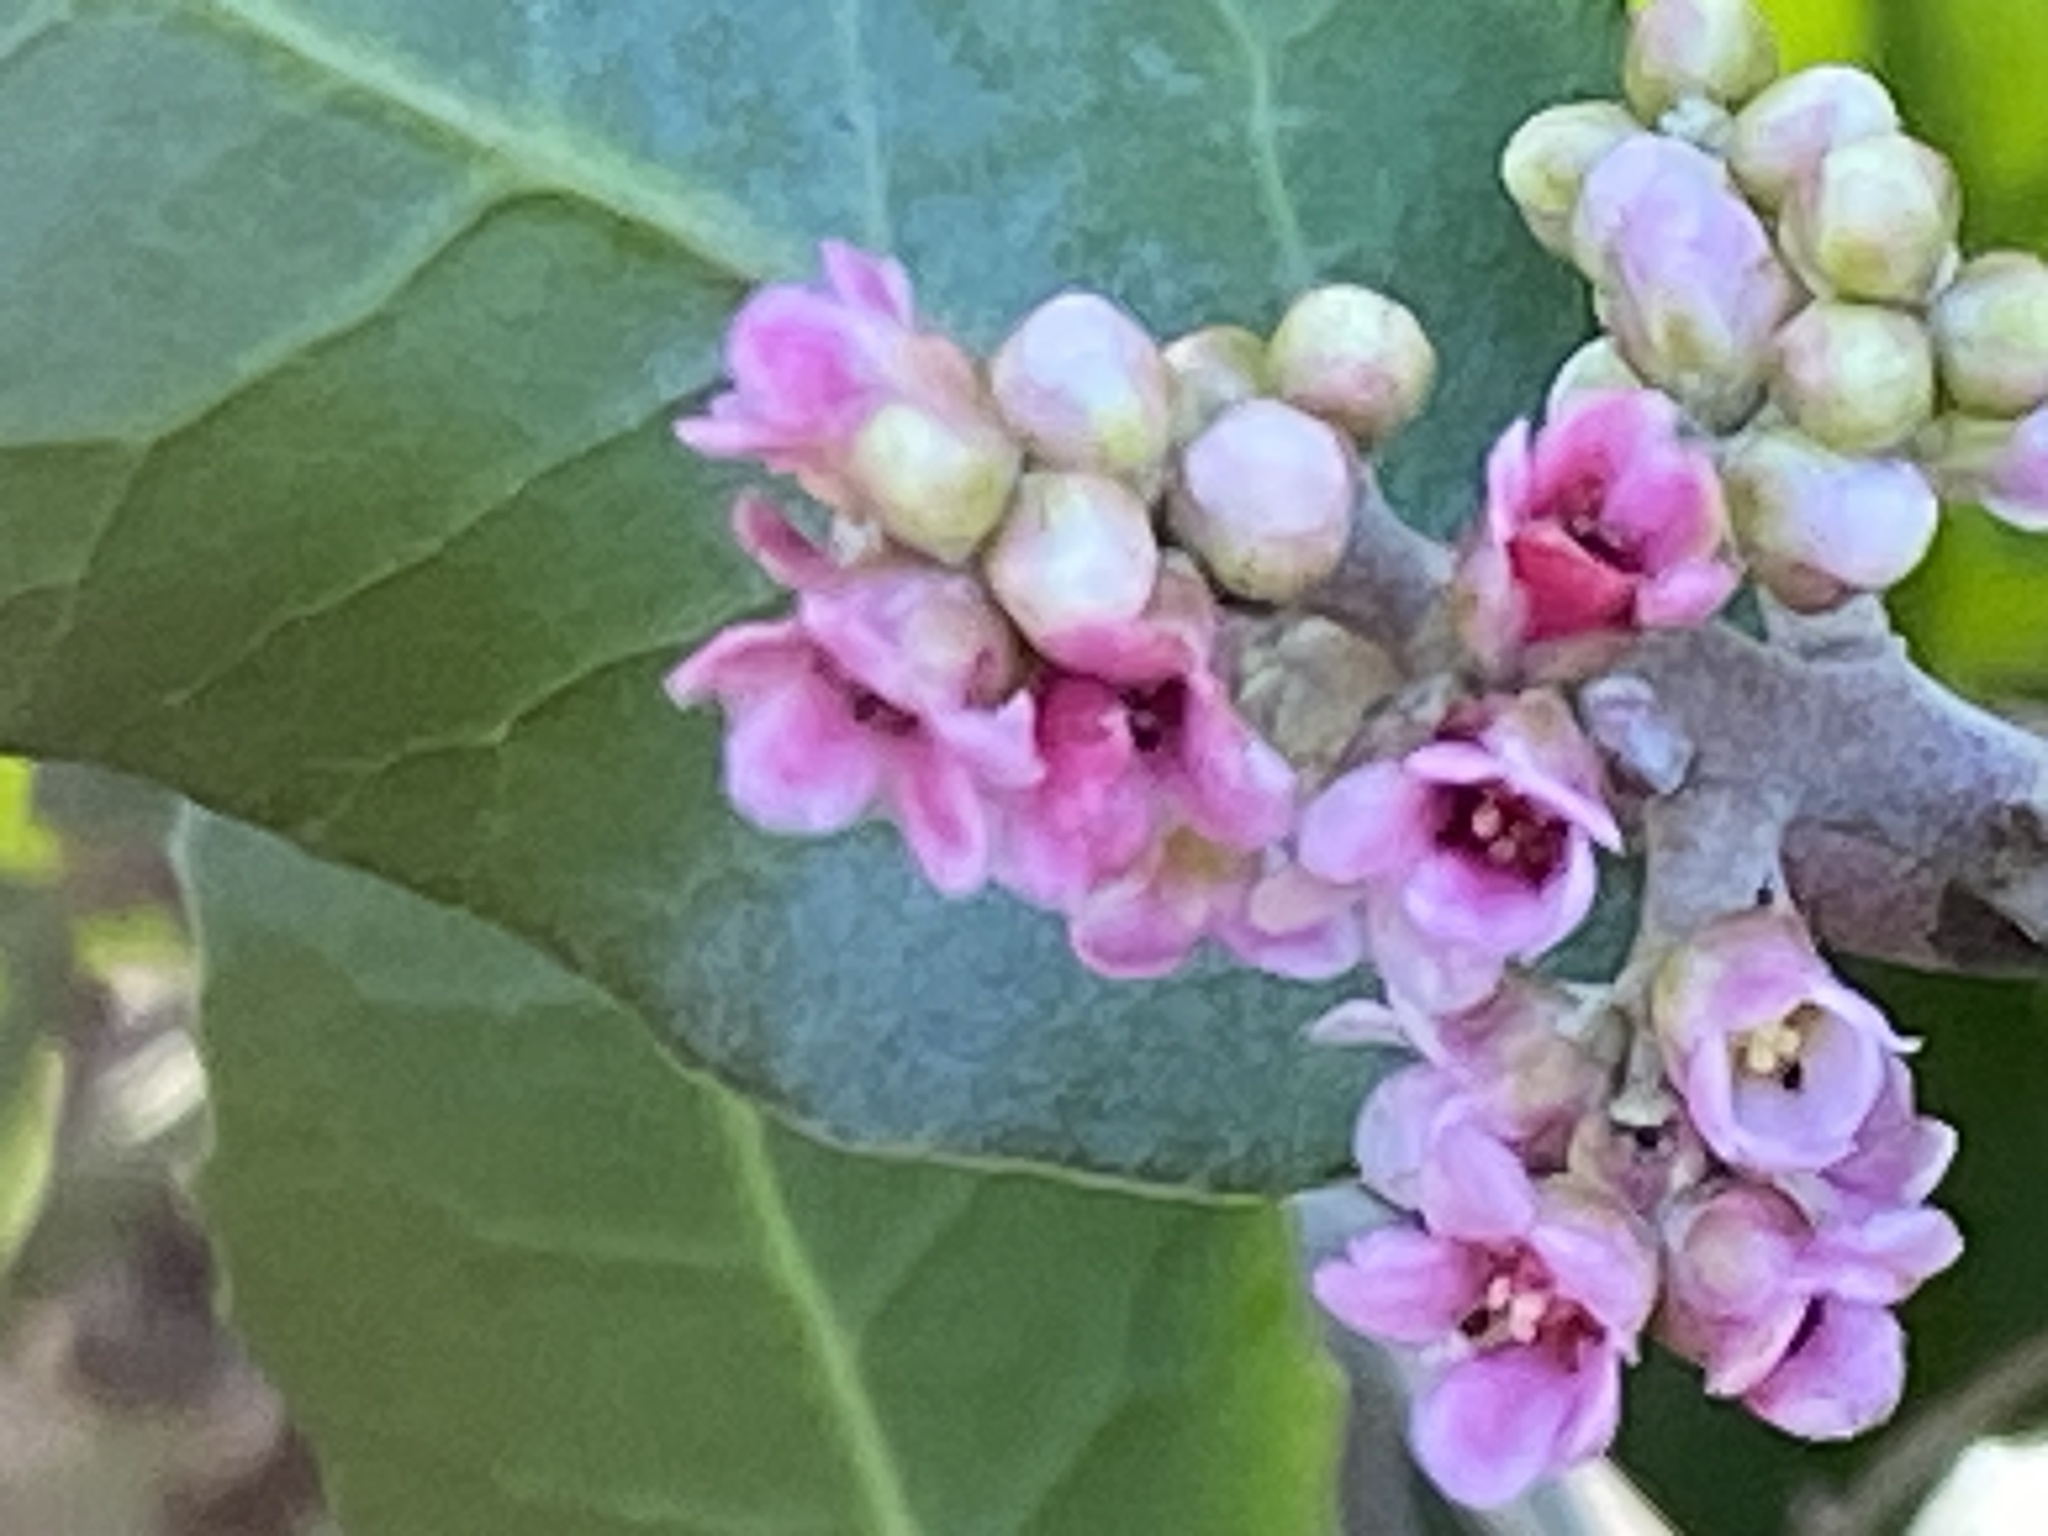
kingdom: Plantae
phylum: Tracheophyta
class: Magnoliopsida
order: Sapindales
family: Anacardiaceae
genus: Rhus
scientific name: Rhus integrifolia
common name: Lemonade sumac
